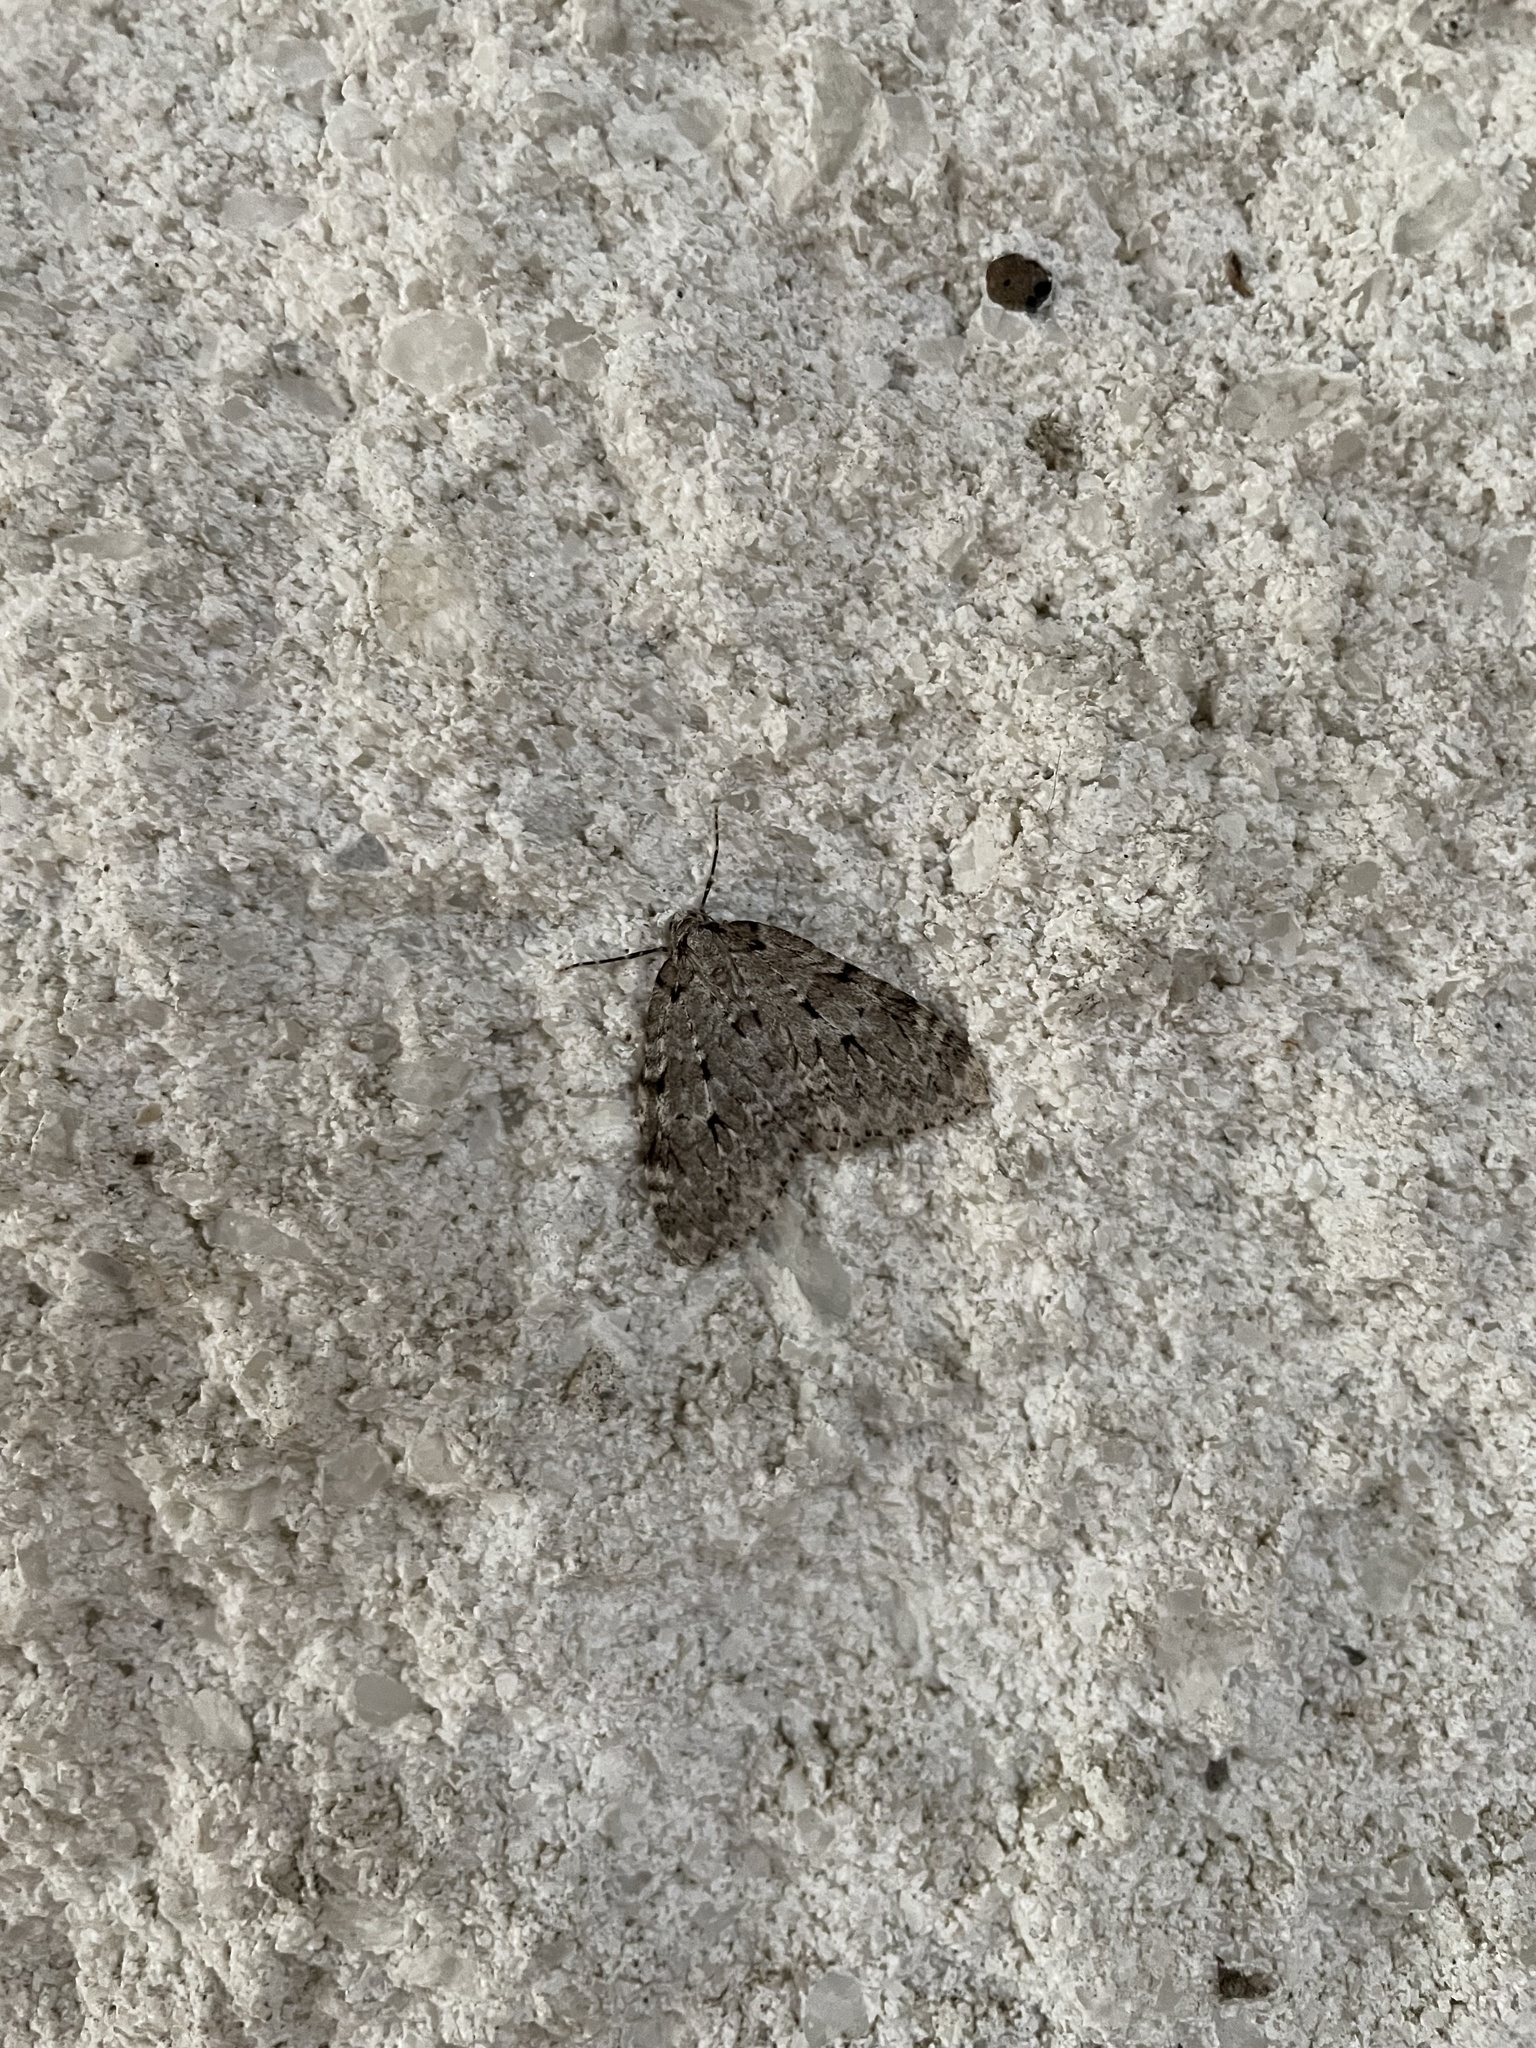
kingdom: Animalia
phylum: Arthropoda
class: Insecta
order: Lepidoptera
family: Geometridae
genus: Epirrita
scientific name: Epirrita autumnata
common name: Autumnal moth
